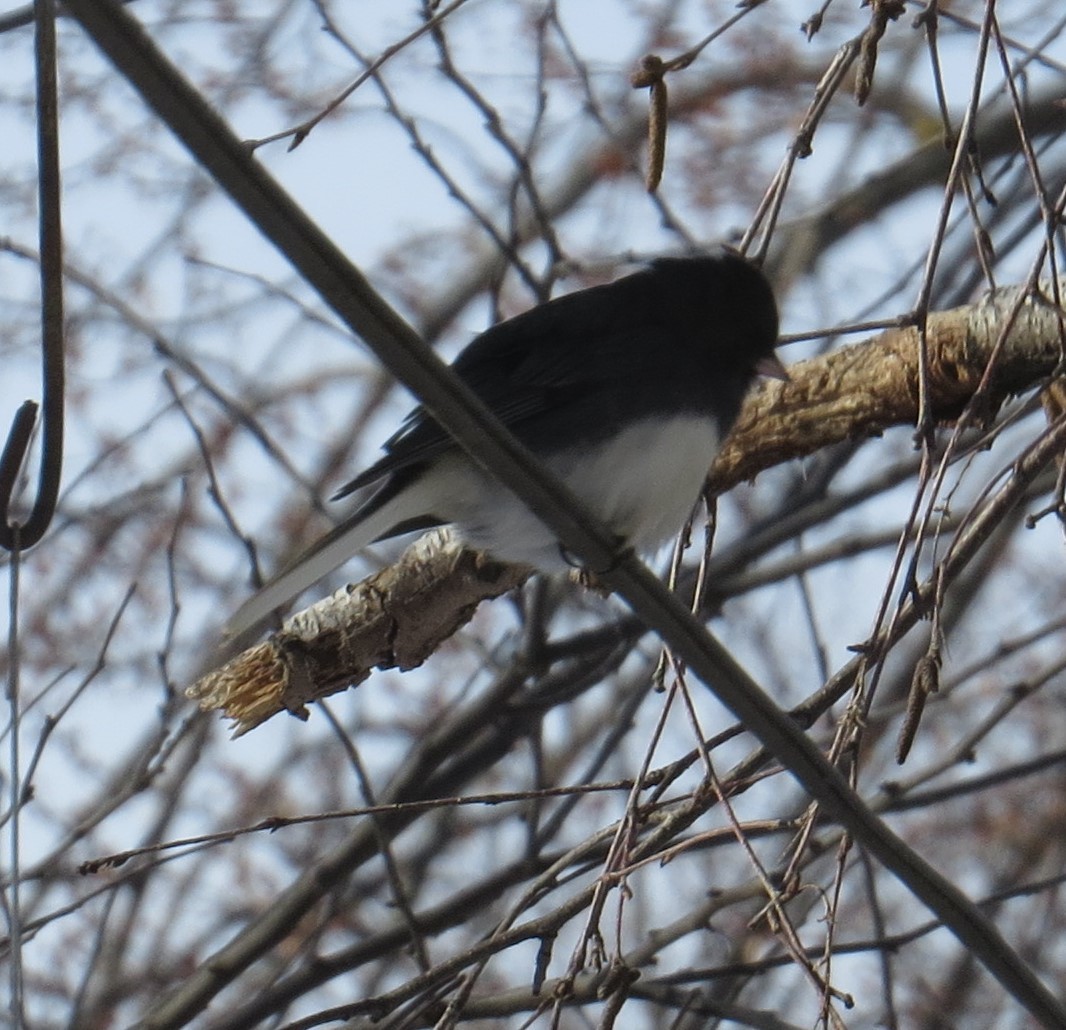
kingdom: Animalia
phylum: Chordata
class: Aves
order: Passeriformes
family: Passerellidae
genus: Junco
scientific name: Junco hyemalis
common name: Dark-eyed junco
